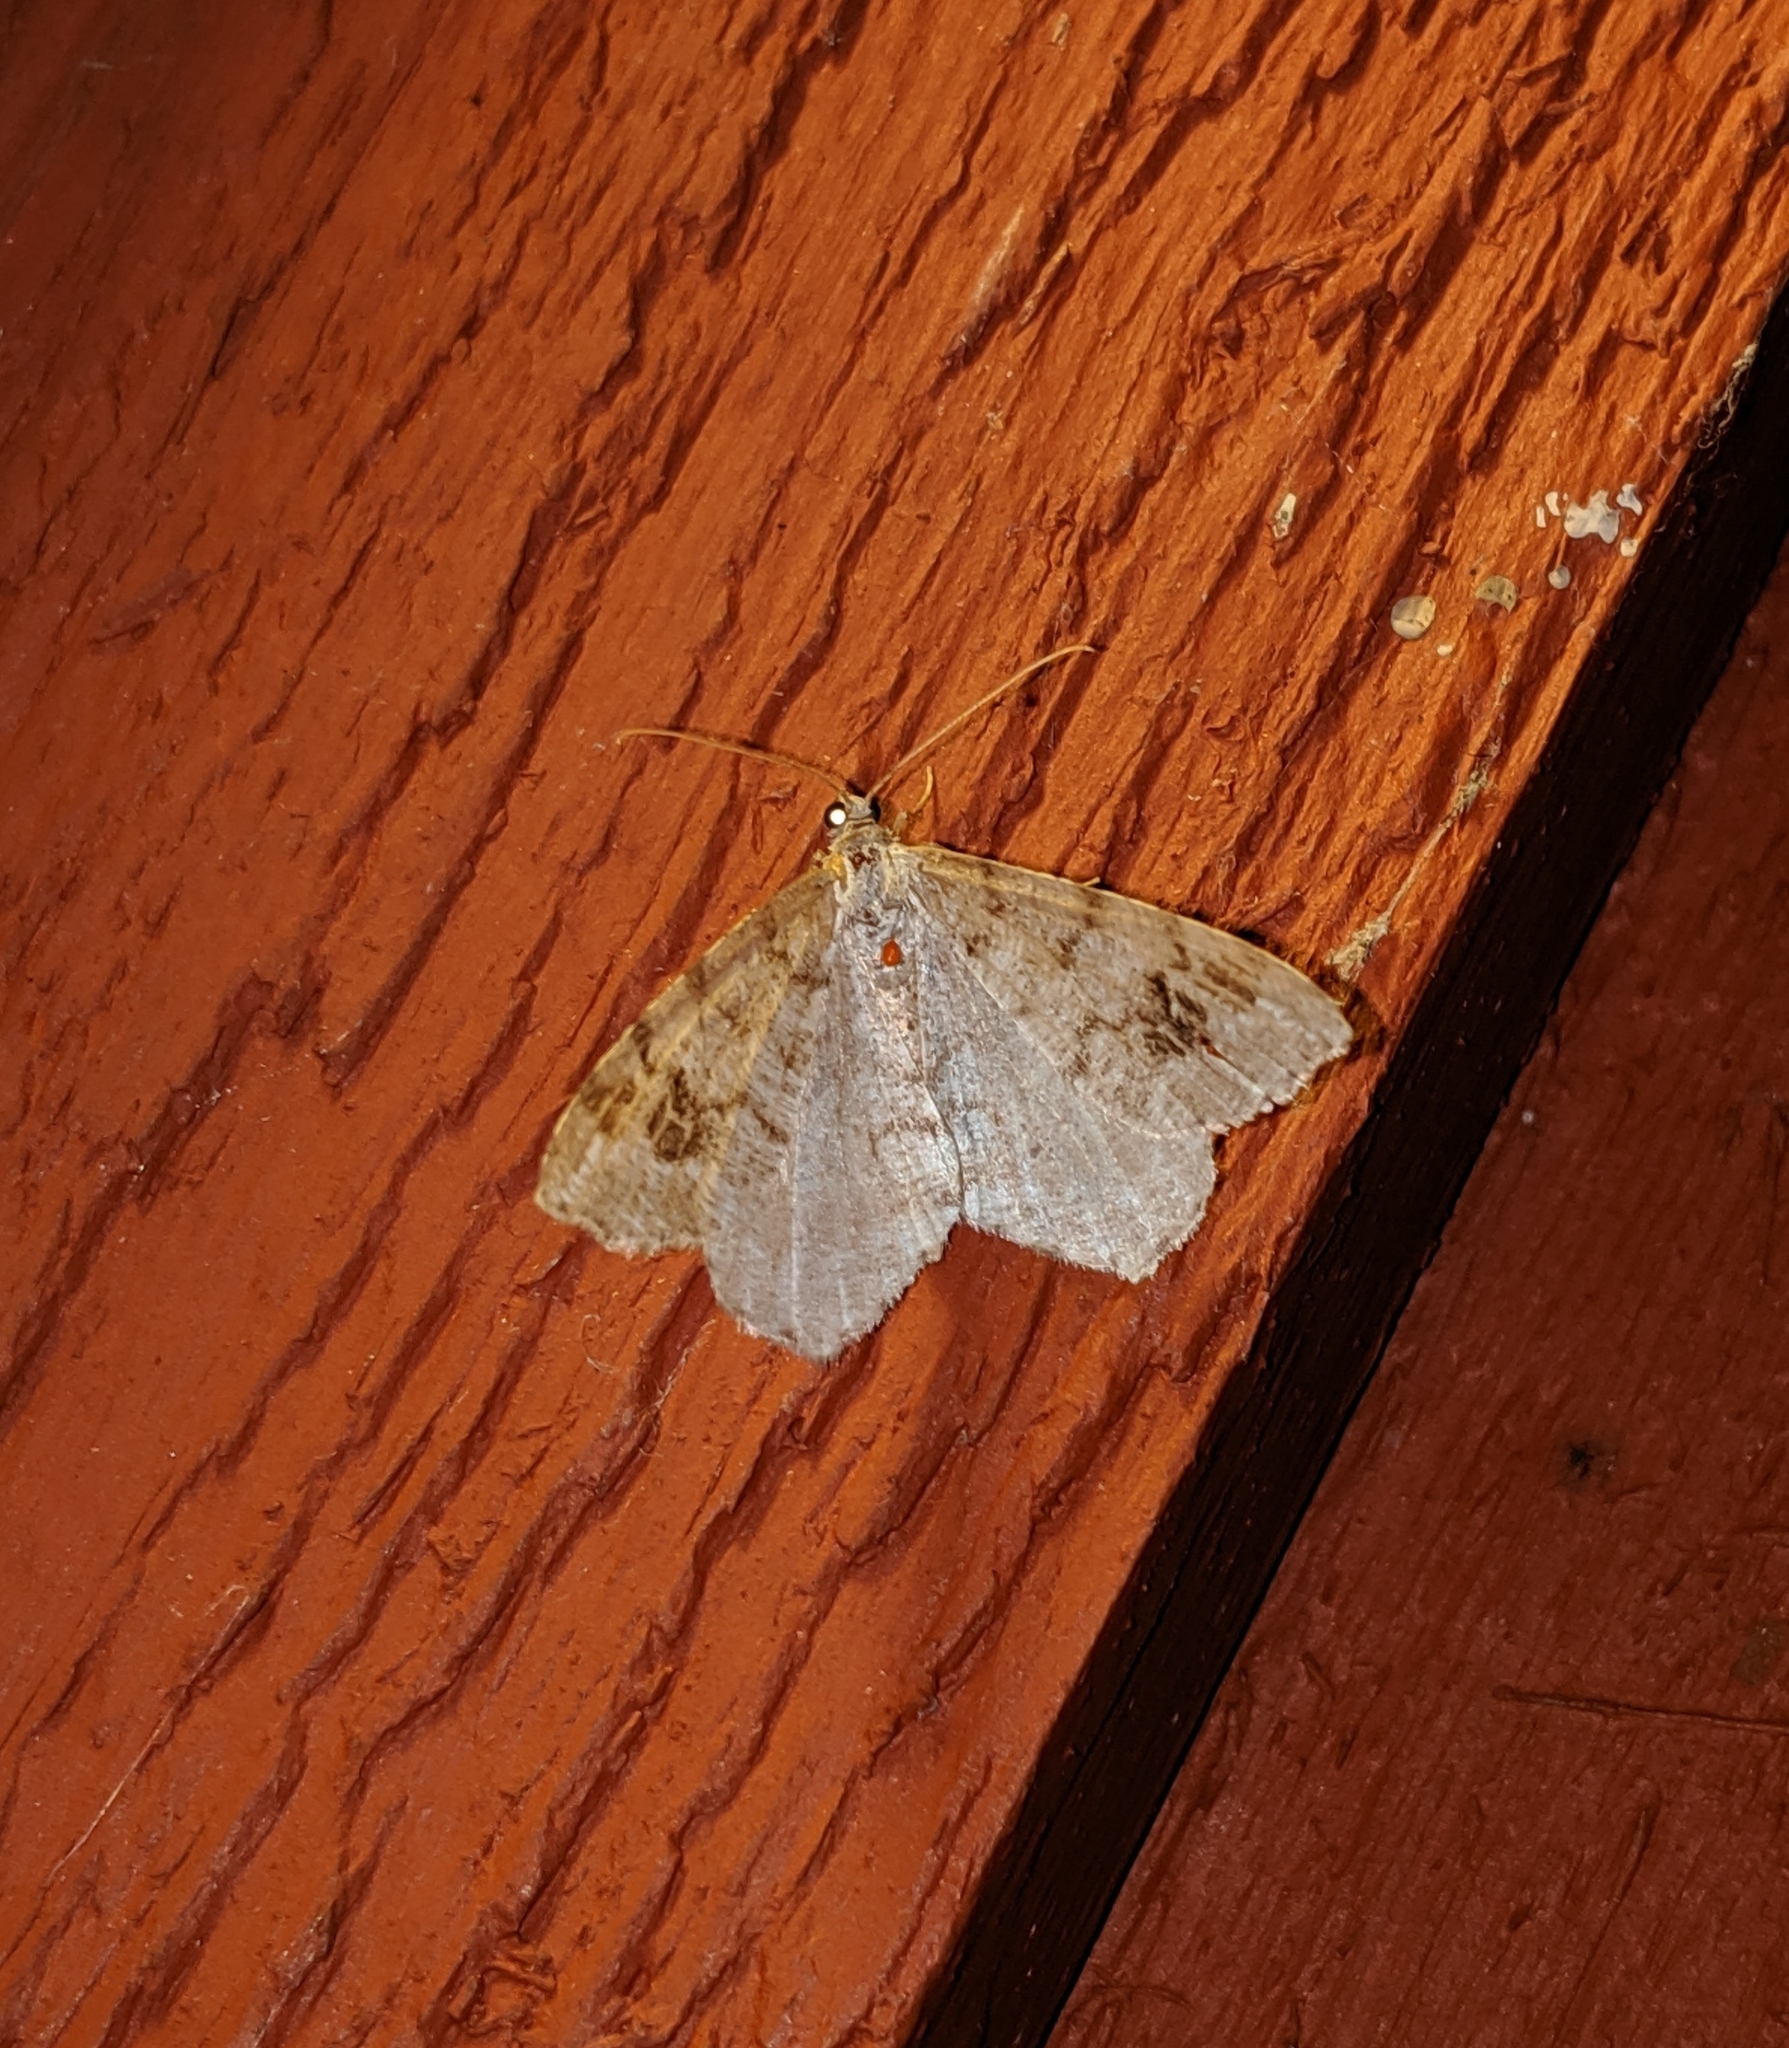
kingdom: Animalia
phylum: Arthropoda
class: Insecta
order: Lepidoptera
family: Geometridae
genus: Macaria
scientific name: Macaria signaria
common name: Dusky peacock
